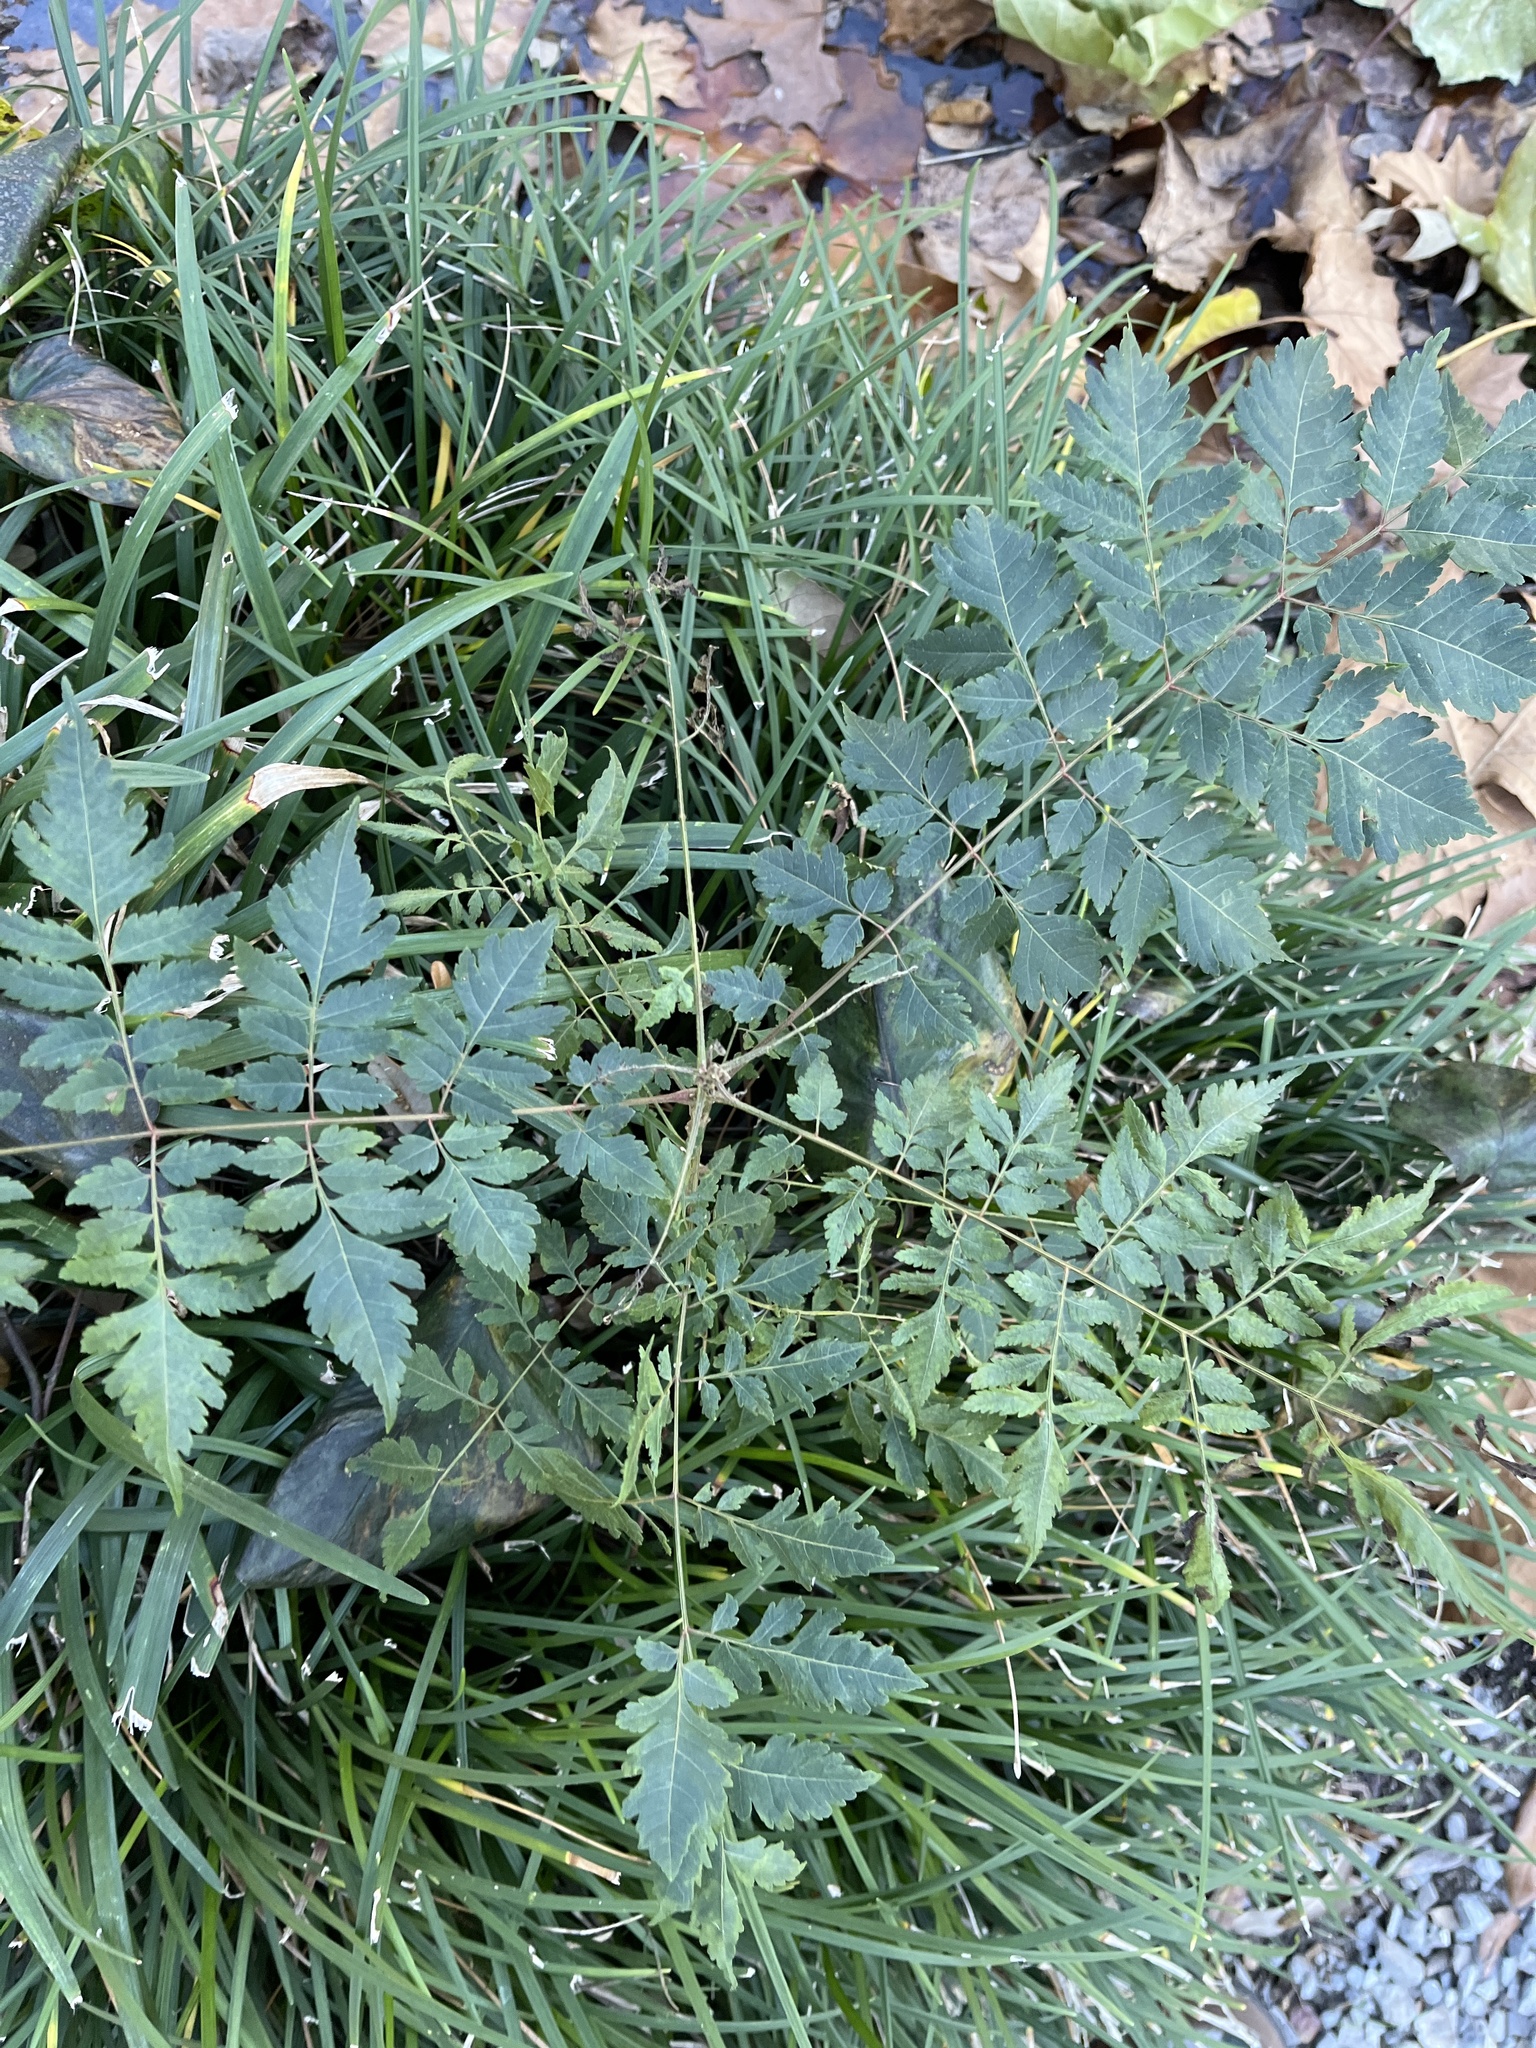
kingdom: Plantae
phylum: Tracheophyta
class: Magnoliopsida
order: Sapindales
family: Sapindaceae
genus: Koelreuteria
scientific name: Koelreuteria elegans
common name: Chinese flame tree
